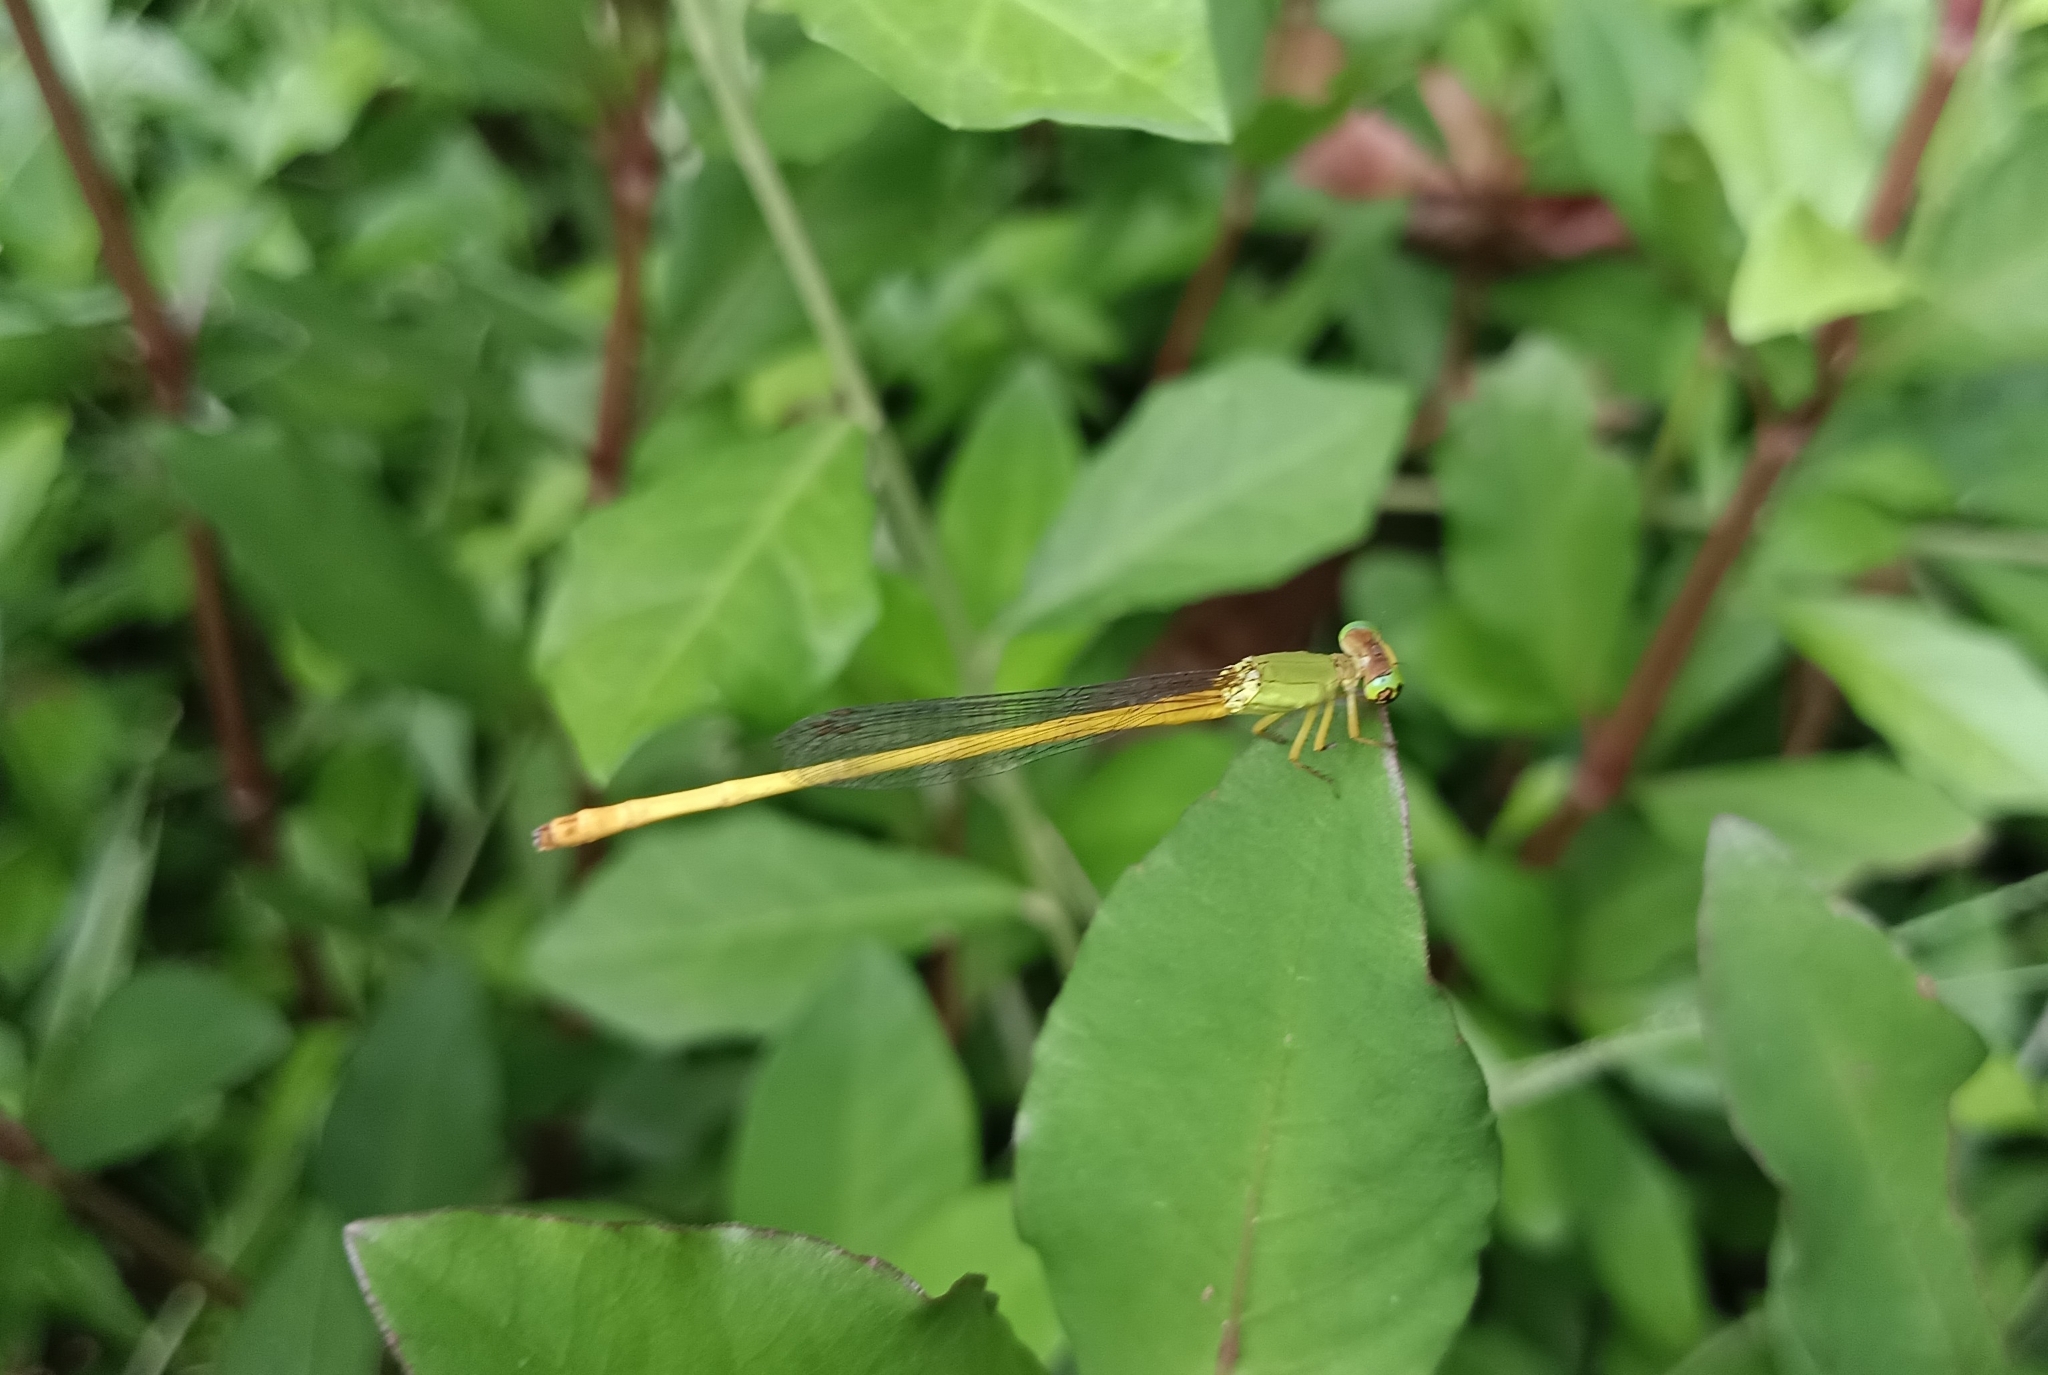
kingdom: Animalia
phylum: Arthropoda
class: Insecta
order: Odonata
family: Coenagrionidae
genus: Ceriagrion
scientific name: Ceriagrion coromandelianum
